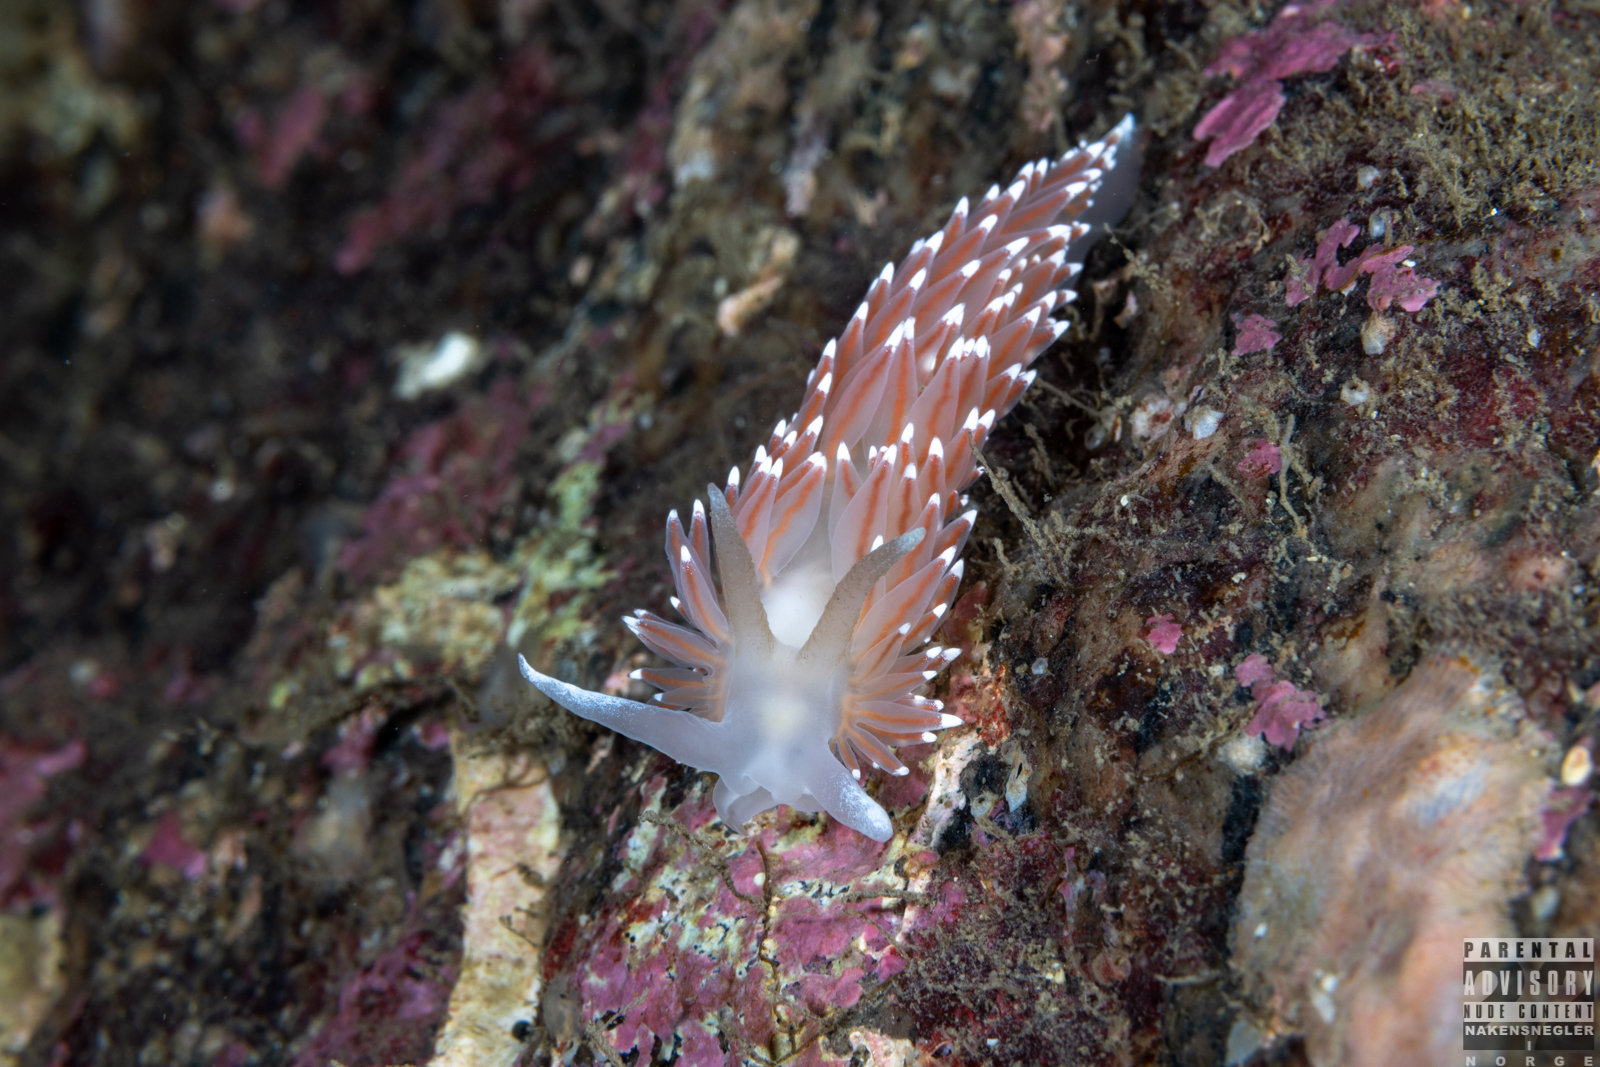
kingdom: Animalia
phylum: Mollusca
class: Gastropoda
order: Nudibranchia
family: Coryphellidae
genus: Coryphella
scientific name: Coryphella nobilis
